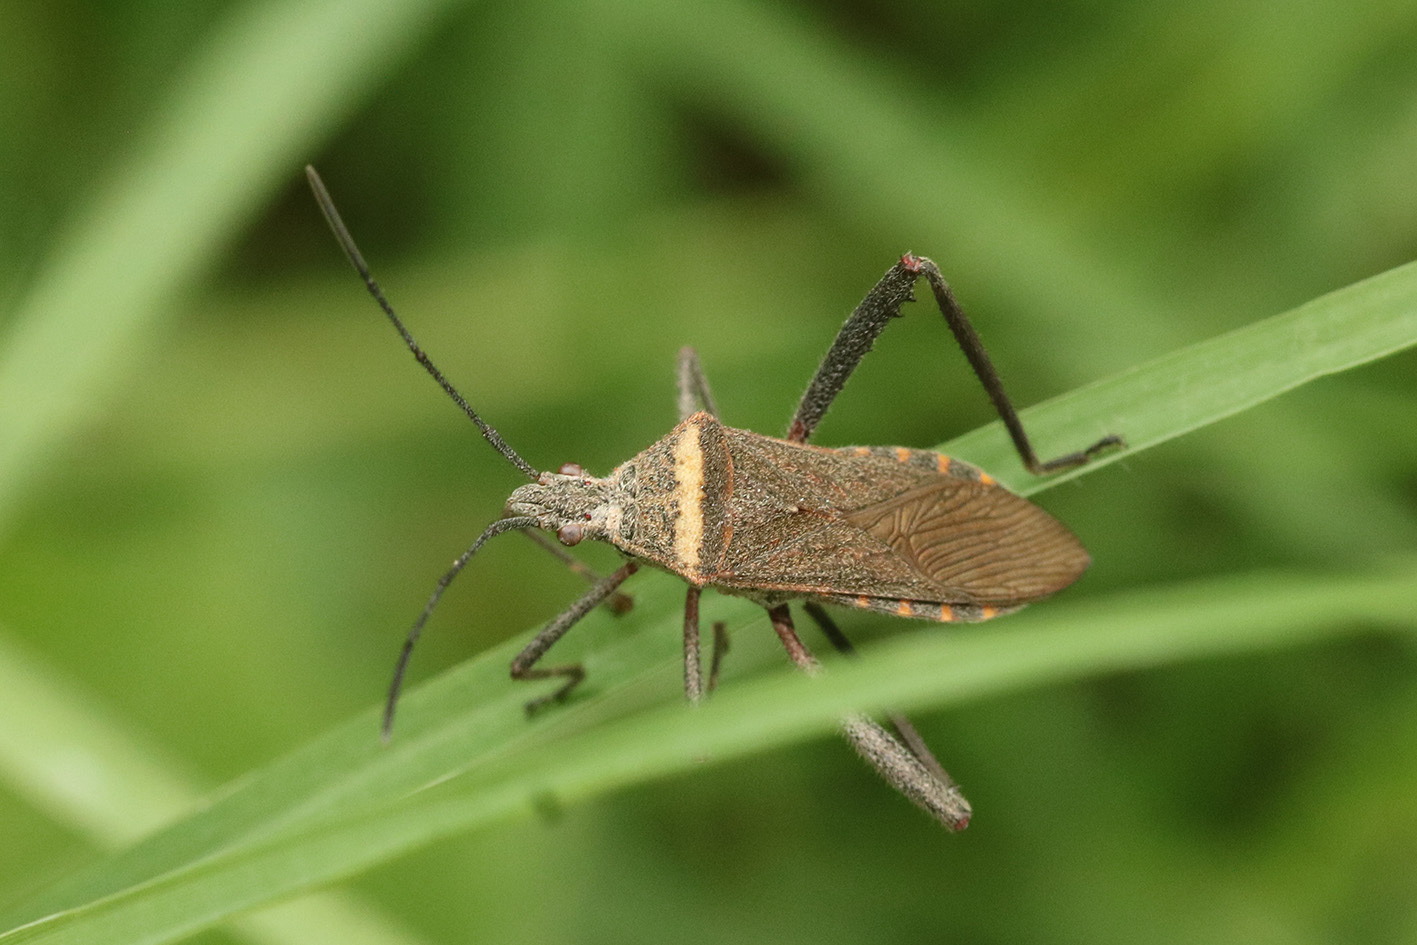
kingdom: Animalia
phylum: Arthropoda
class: Insecta
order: Hemiptera
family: Coreidae
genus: Phthiacnemia
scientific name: Phthiacnemia picta
